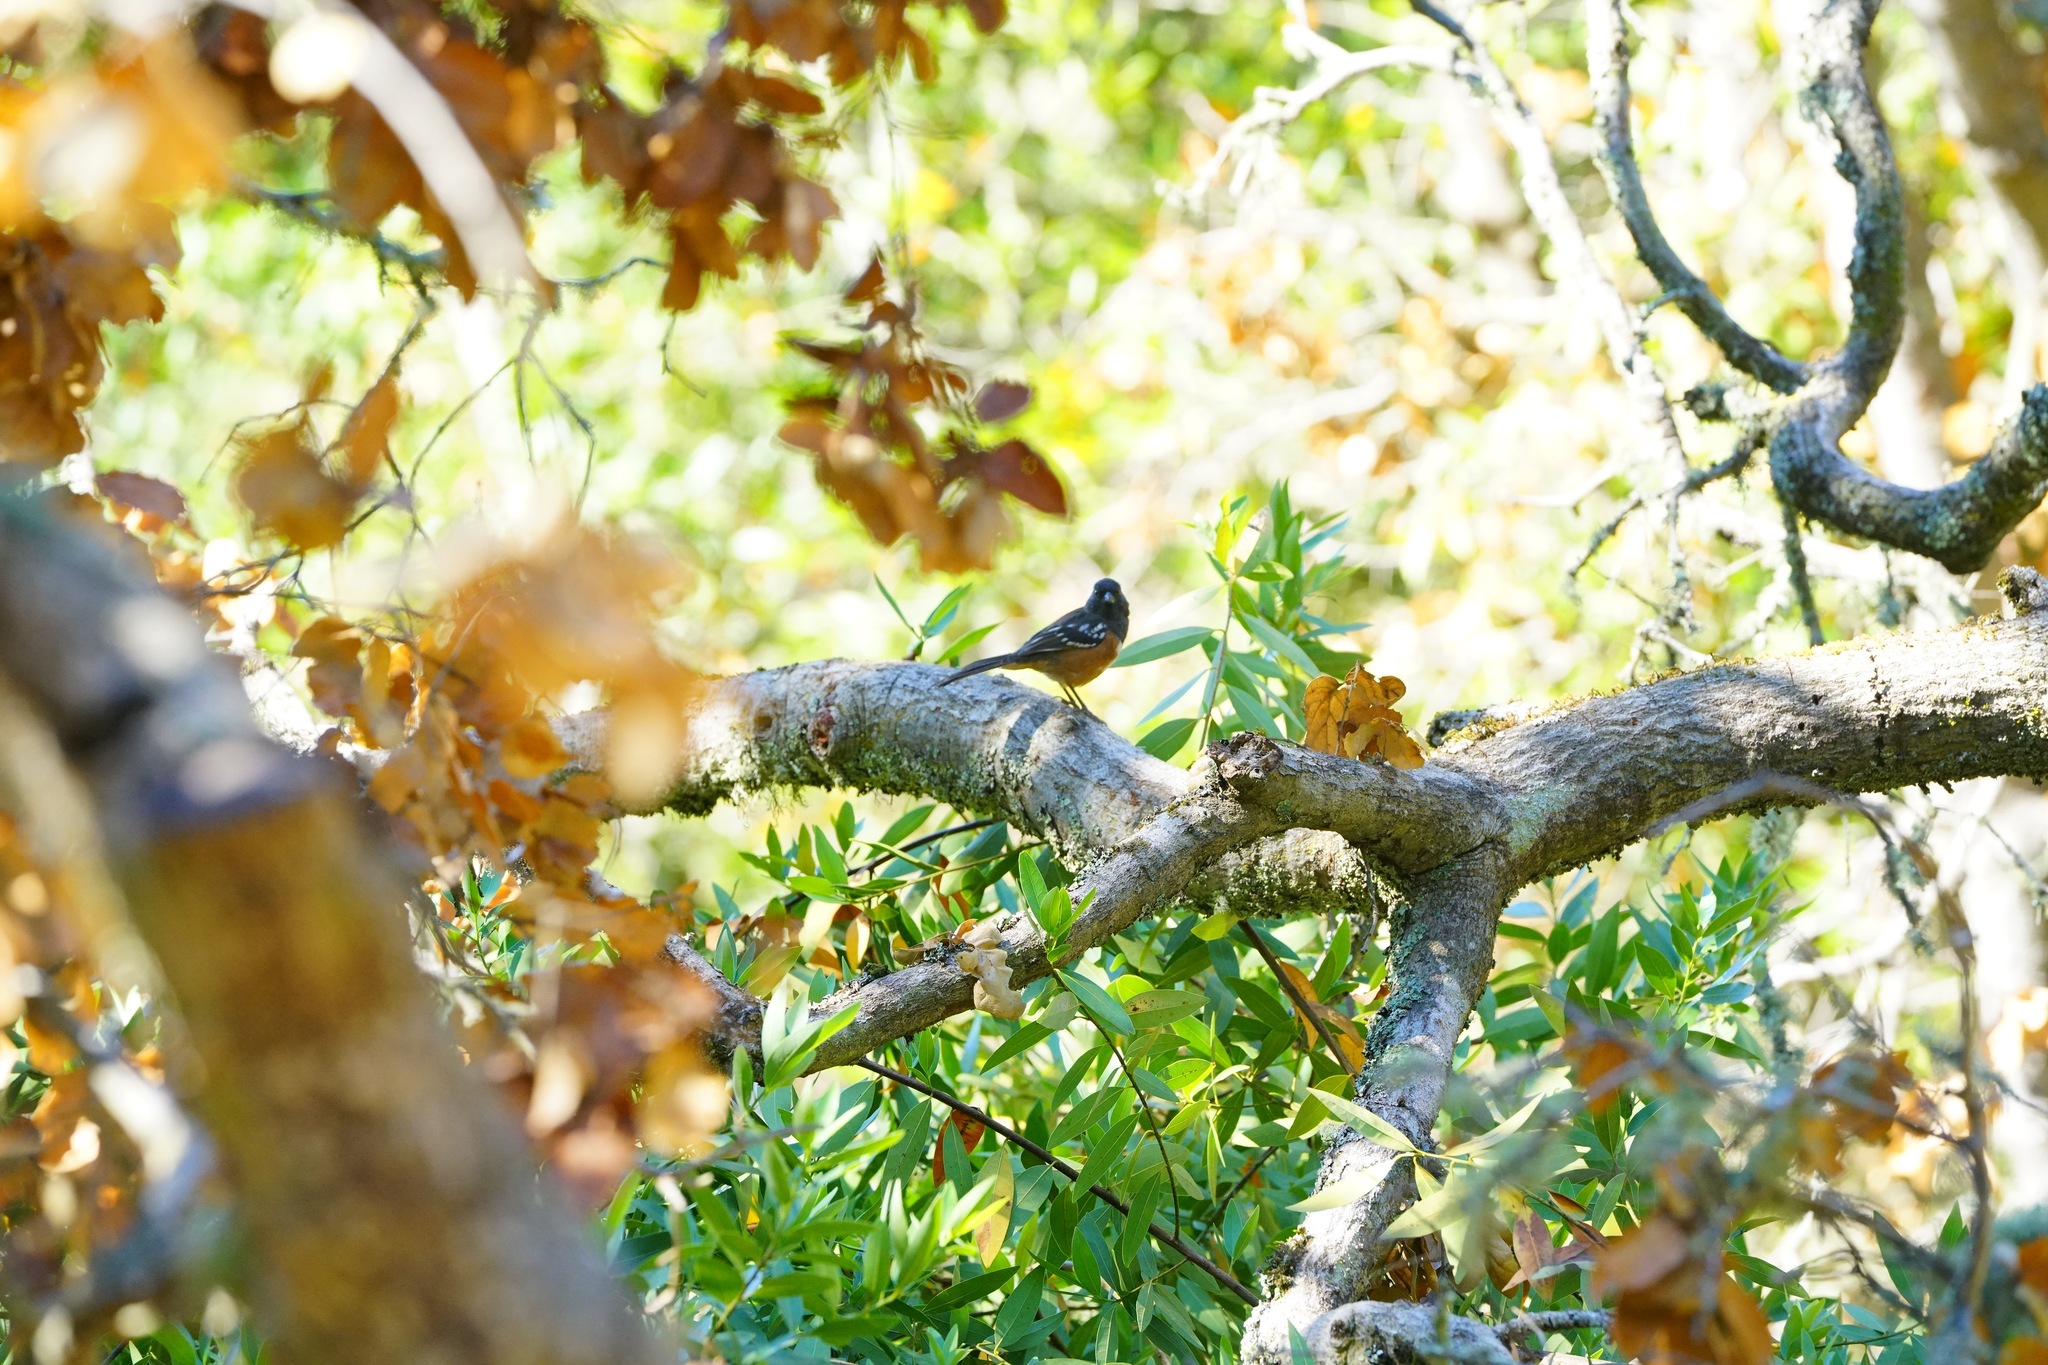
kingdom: Animalia
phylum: Chordata
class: Aves
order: Passeriformes
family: Passerellidae
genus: Pipilo
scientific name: Pipilo maculatus
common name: Spotted towhee
